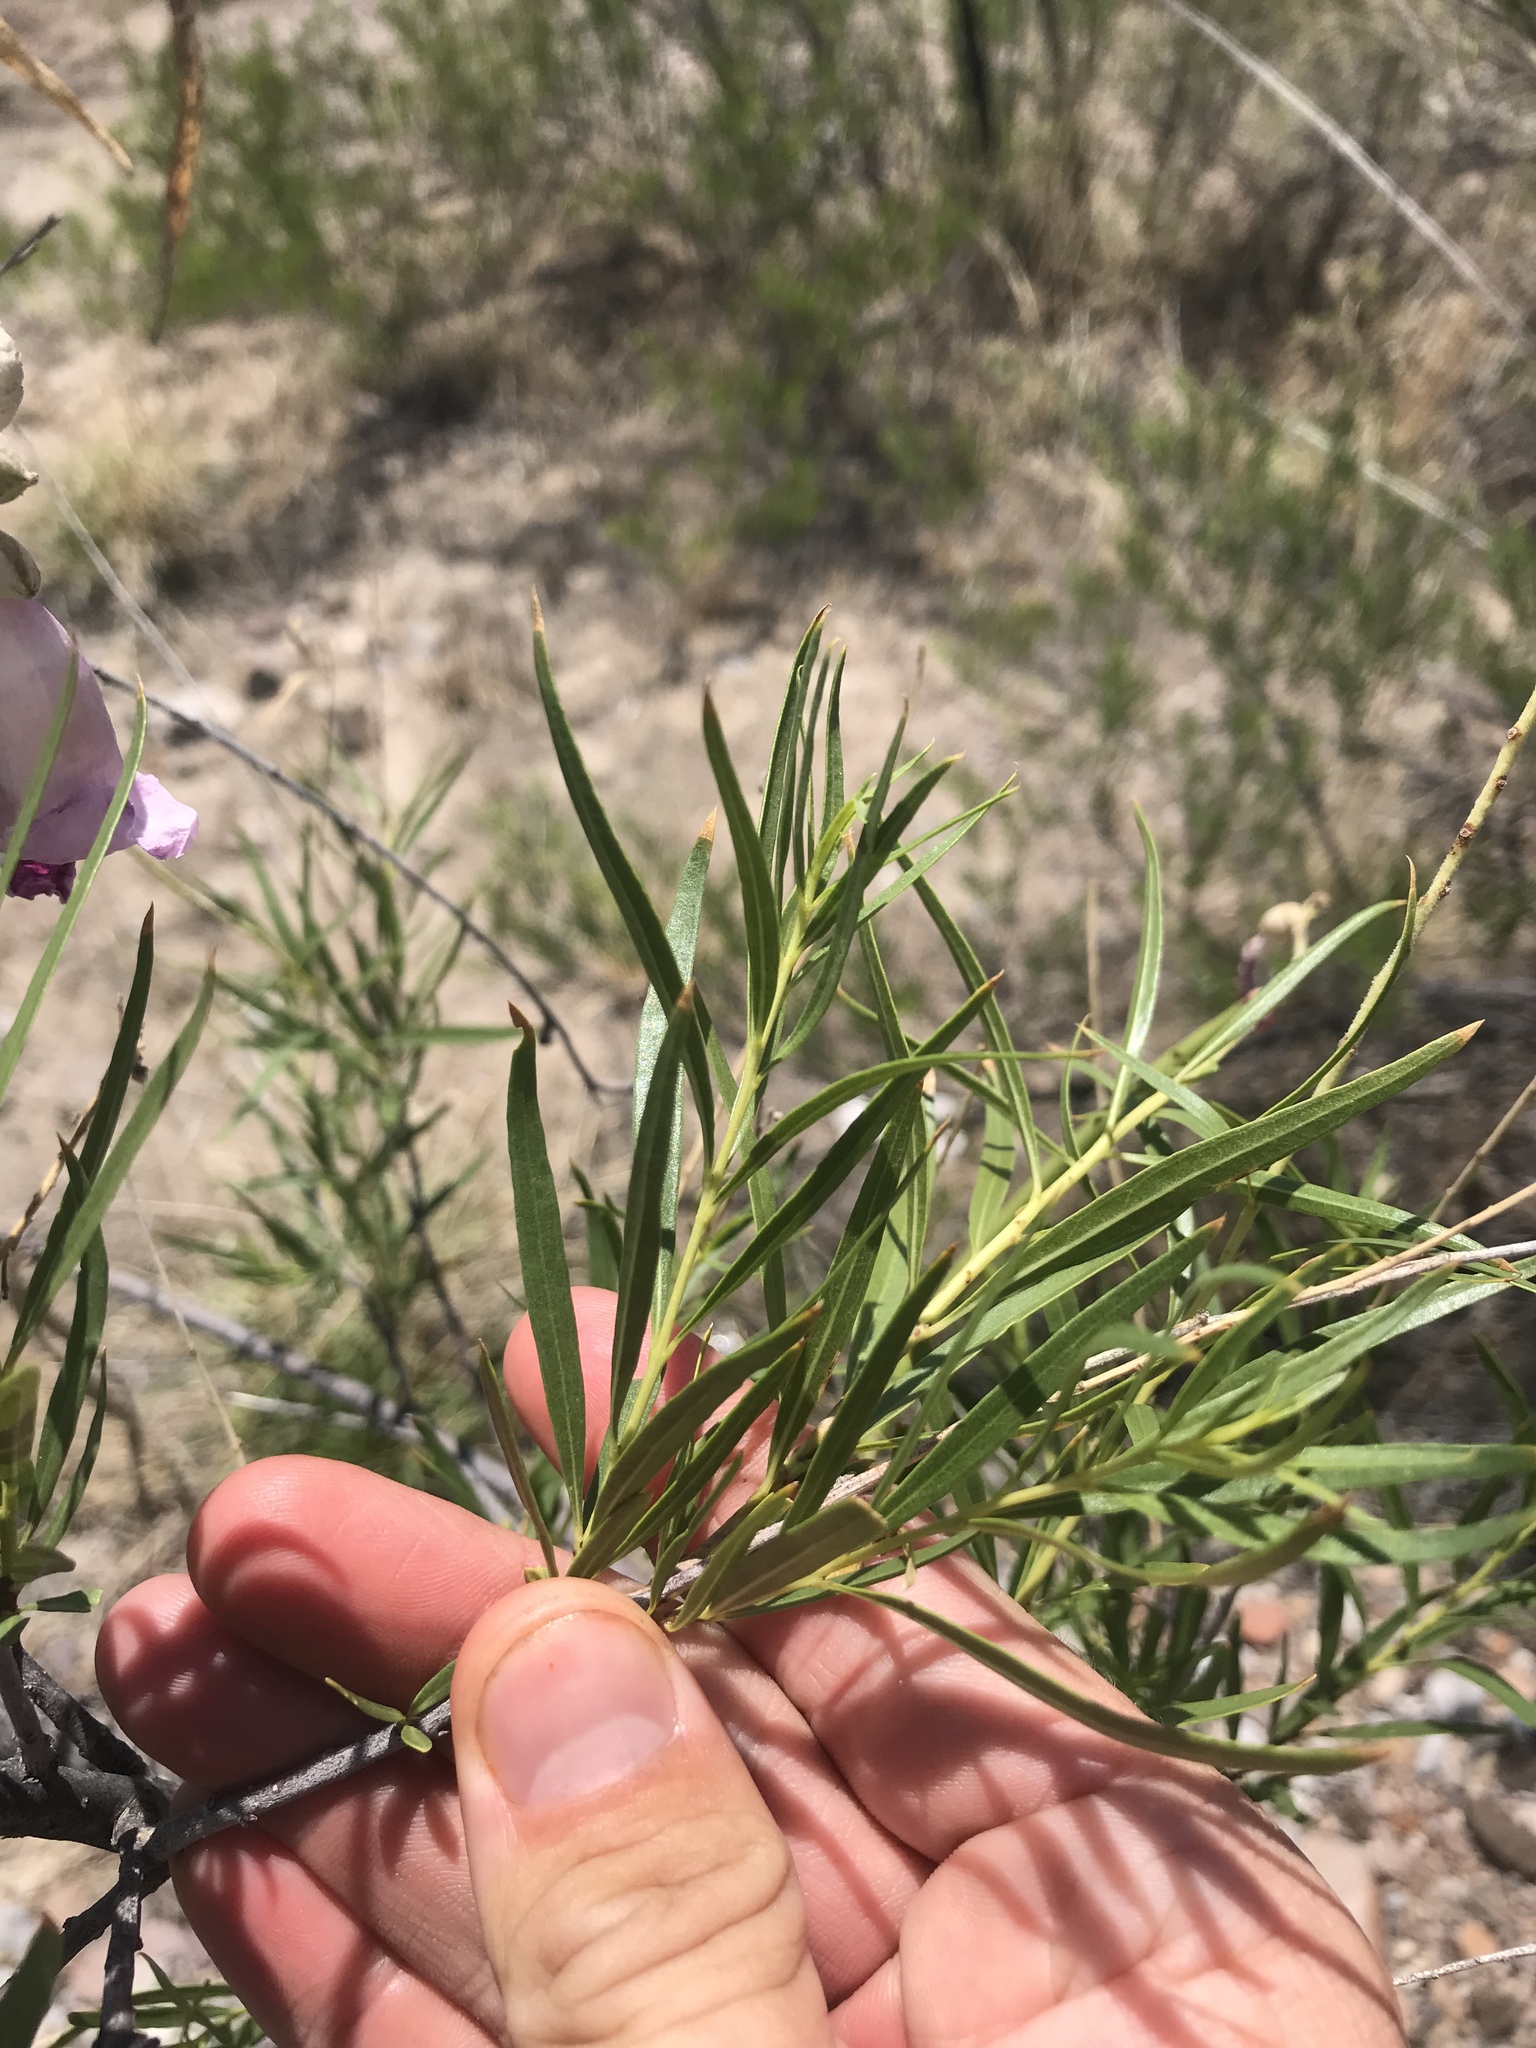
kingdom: Plantae
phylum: Tracheophyta
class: Magnoliopsida
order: Lamiales
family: Bignoniaceae
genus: Chilopsis
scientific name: Chilopsis linearis
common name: Desert-willow
